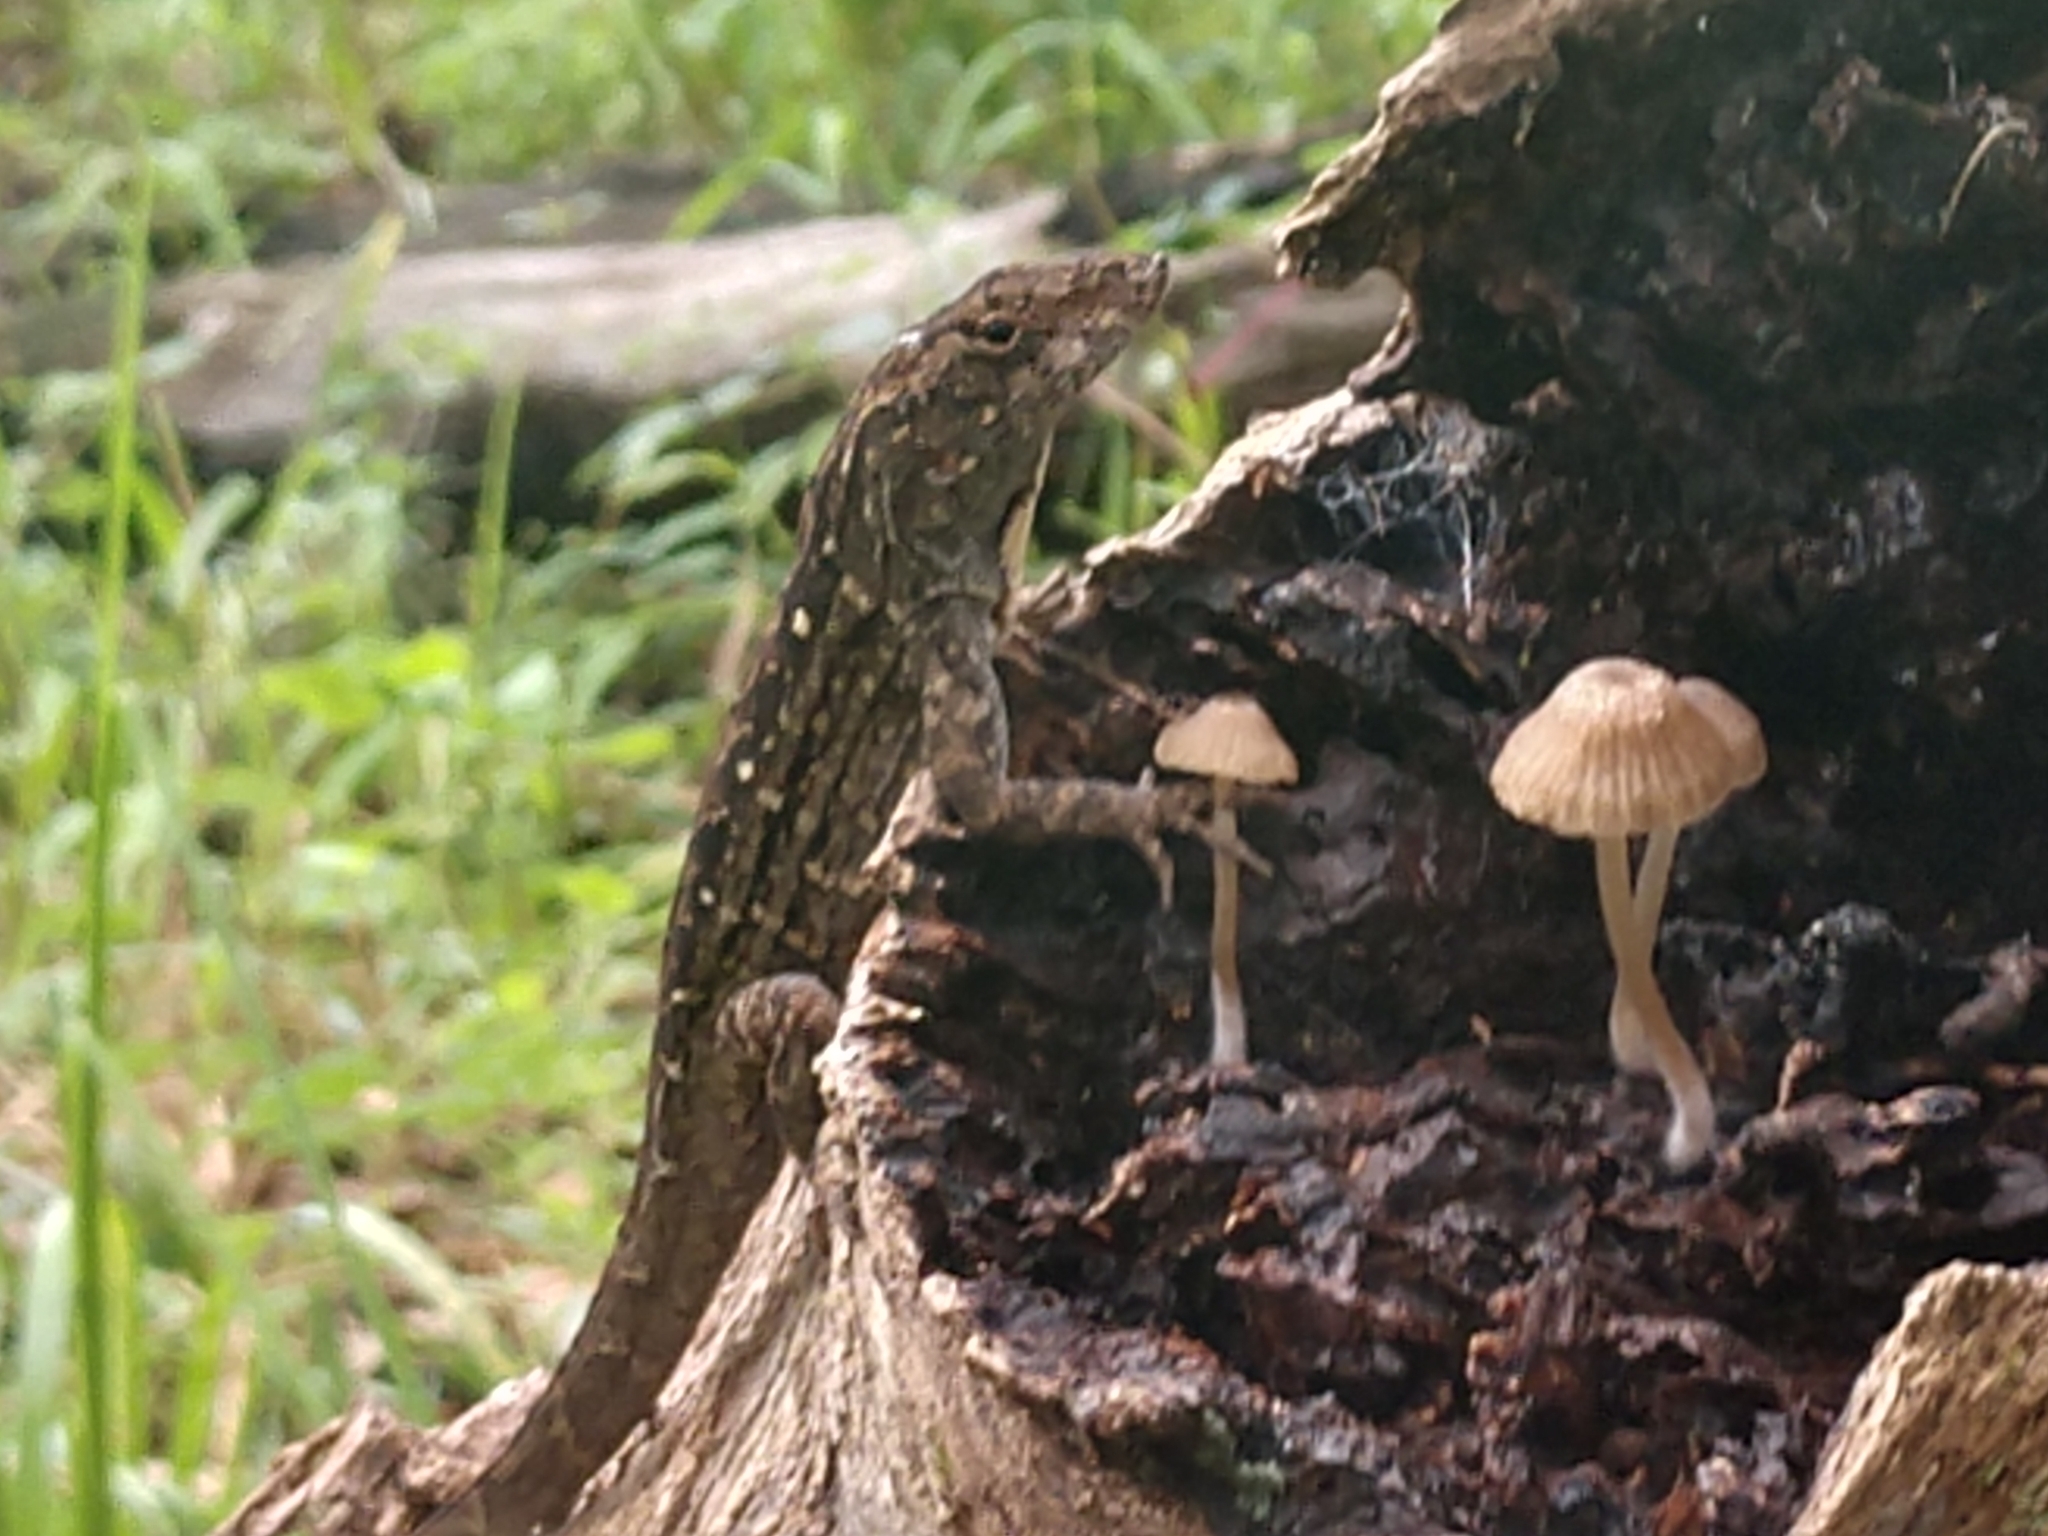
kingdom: Animalia
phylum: Chordata
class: Squamata
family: Dactyloidae
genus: Anolis
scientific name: Anolis sagrei
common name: Brown anole
